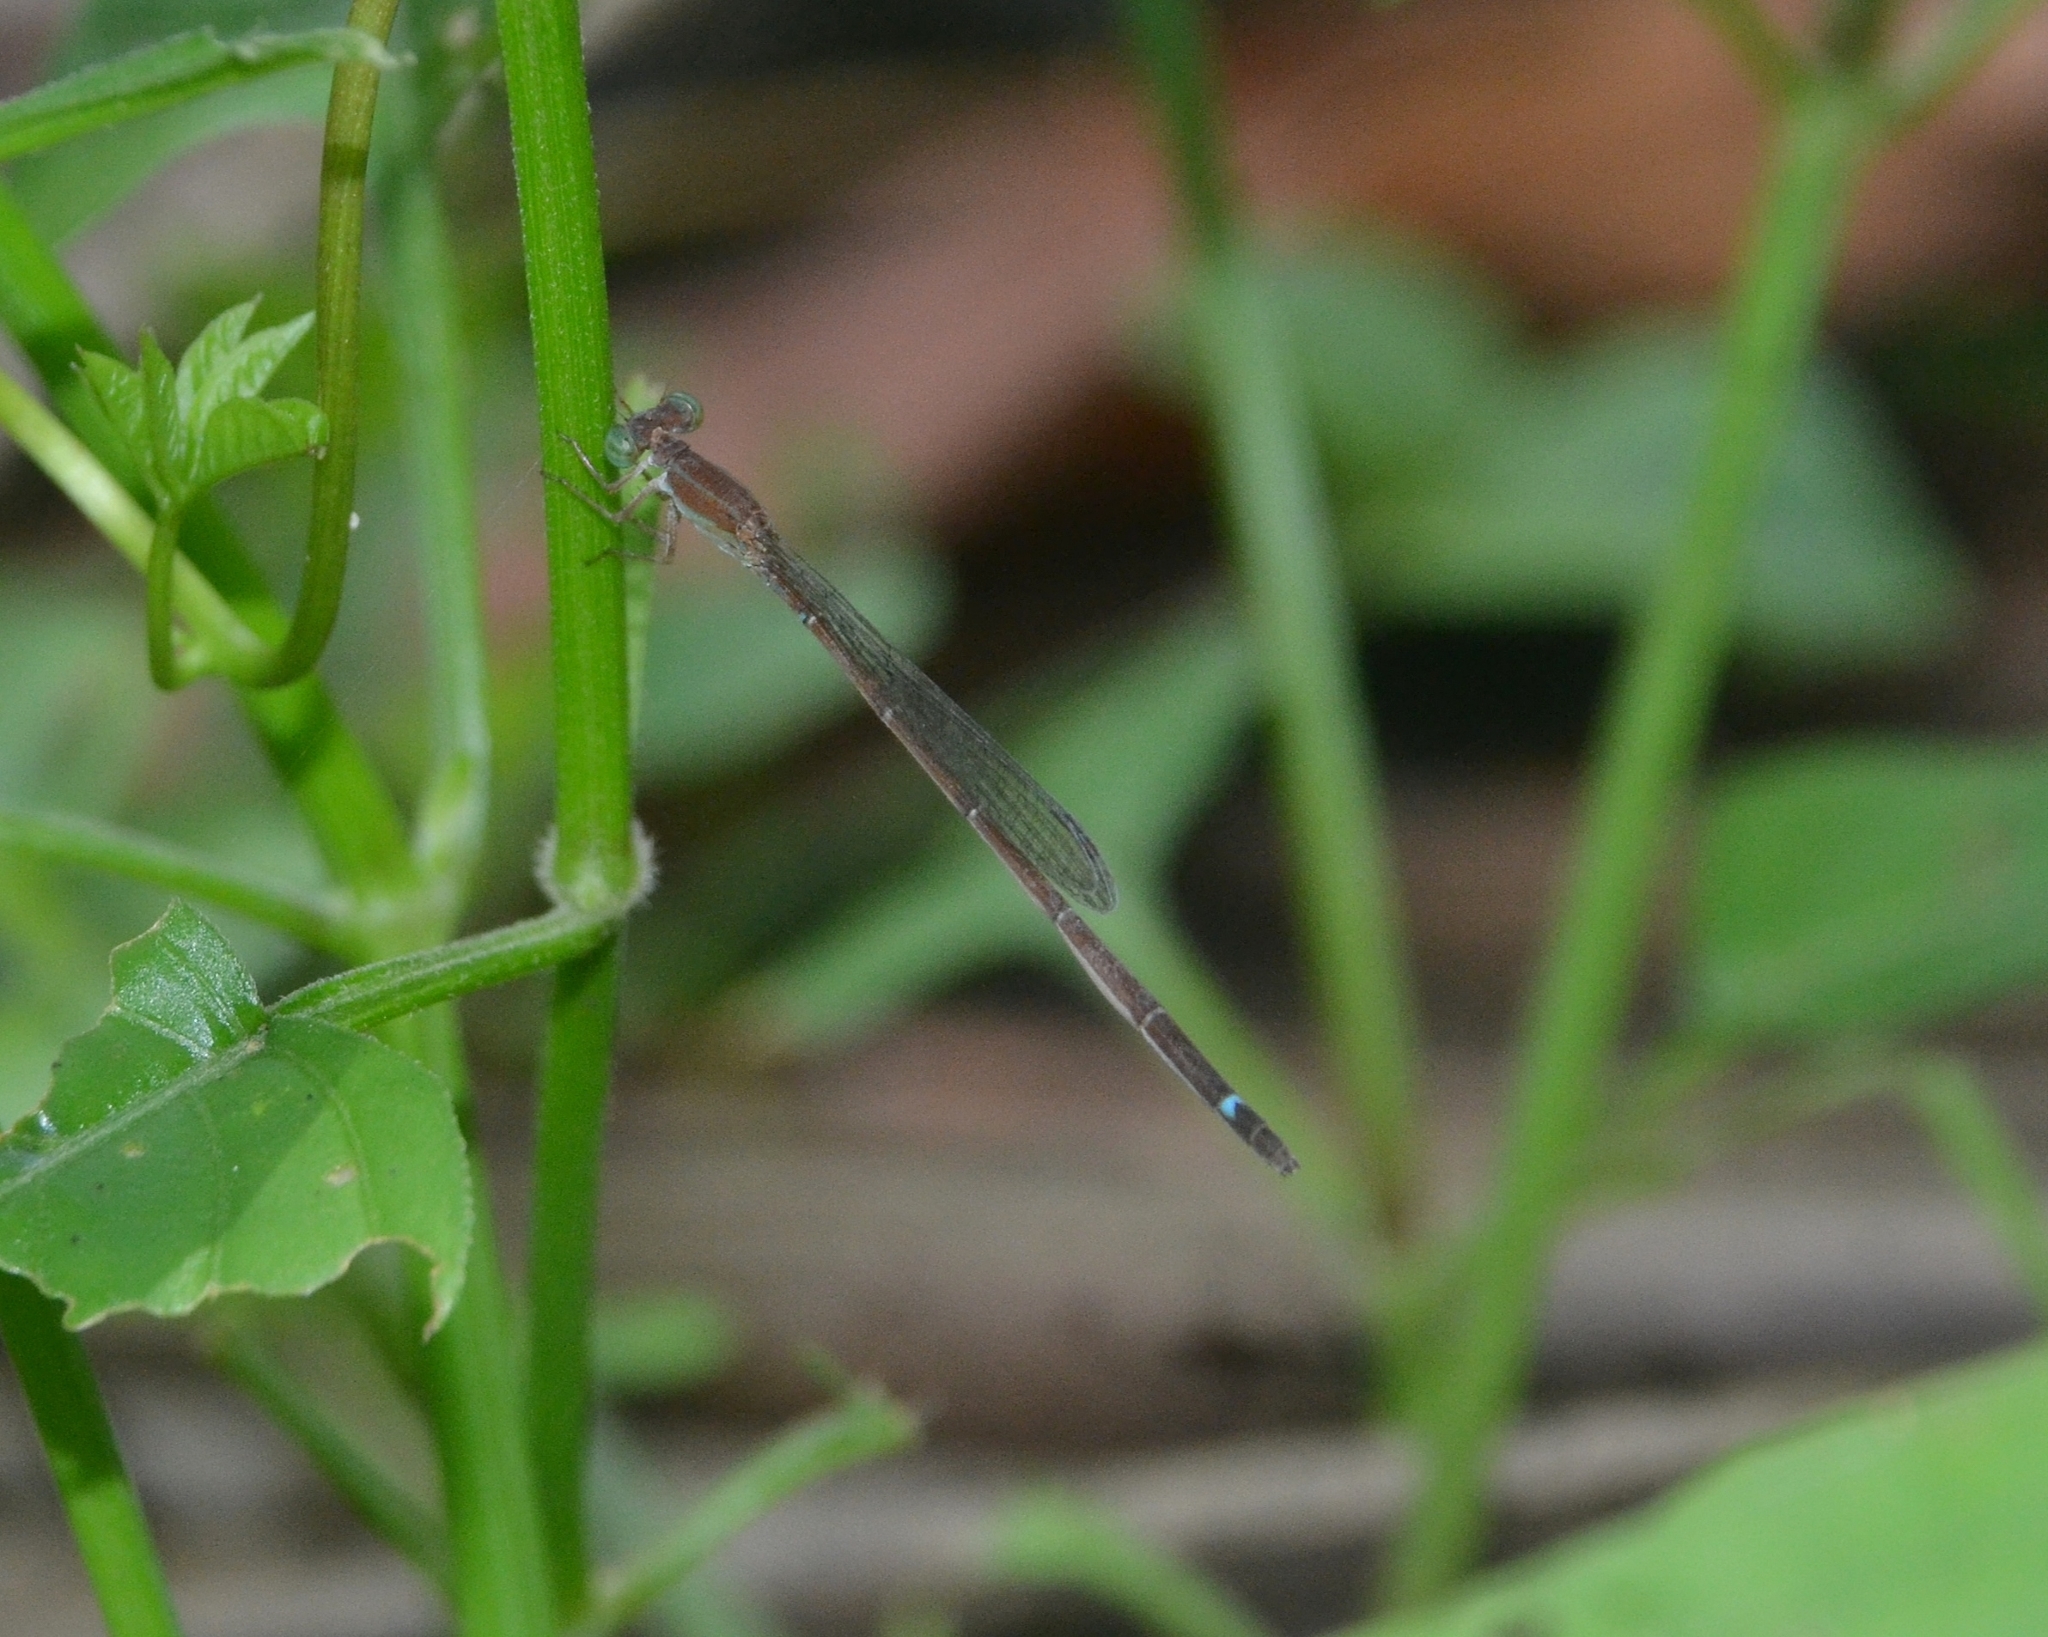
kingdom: Animalia
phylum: Arthropoda
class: Insecta
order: Odonata
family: Coenagrionidae
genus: Mortonagrion
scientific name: Mortonagrion varralli
